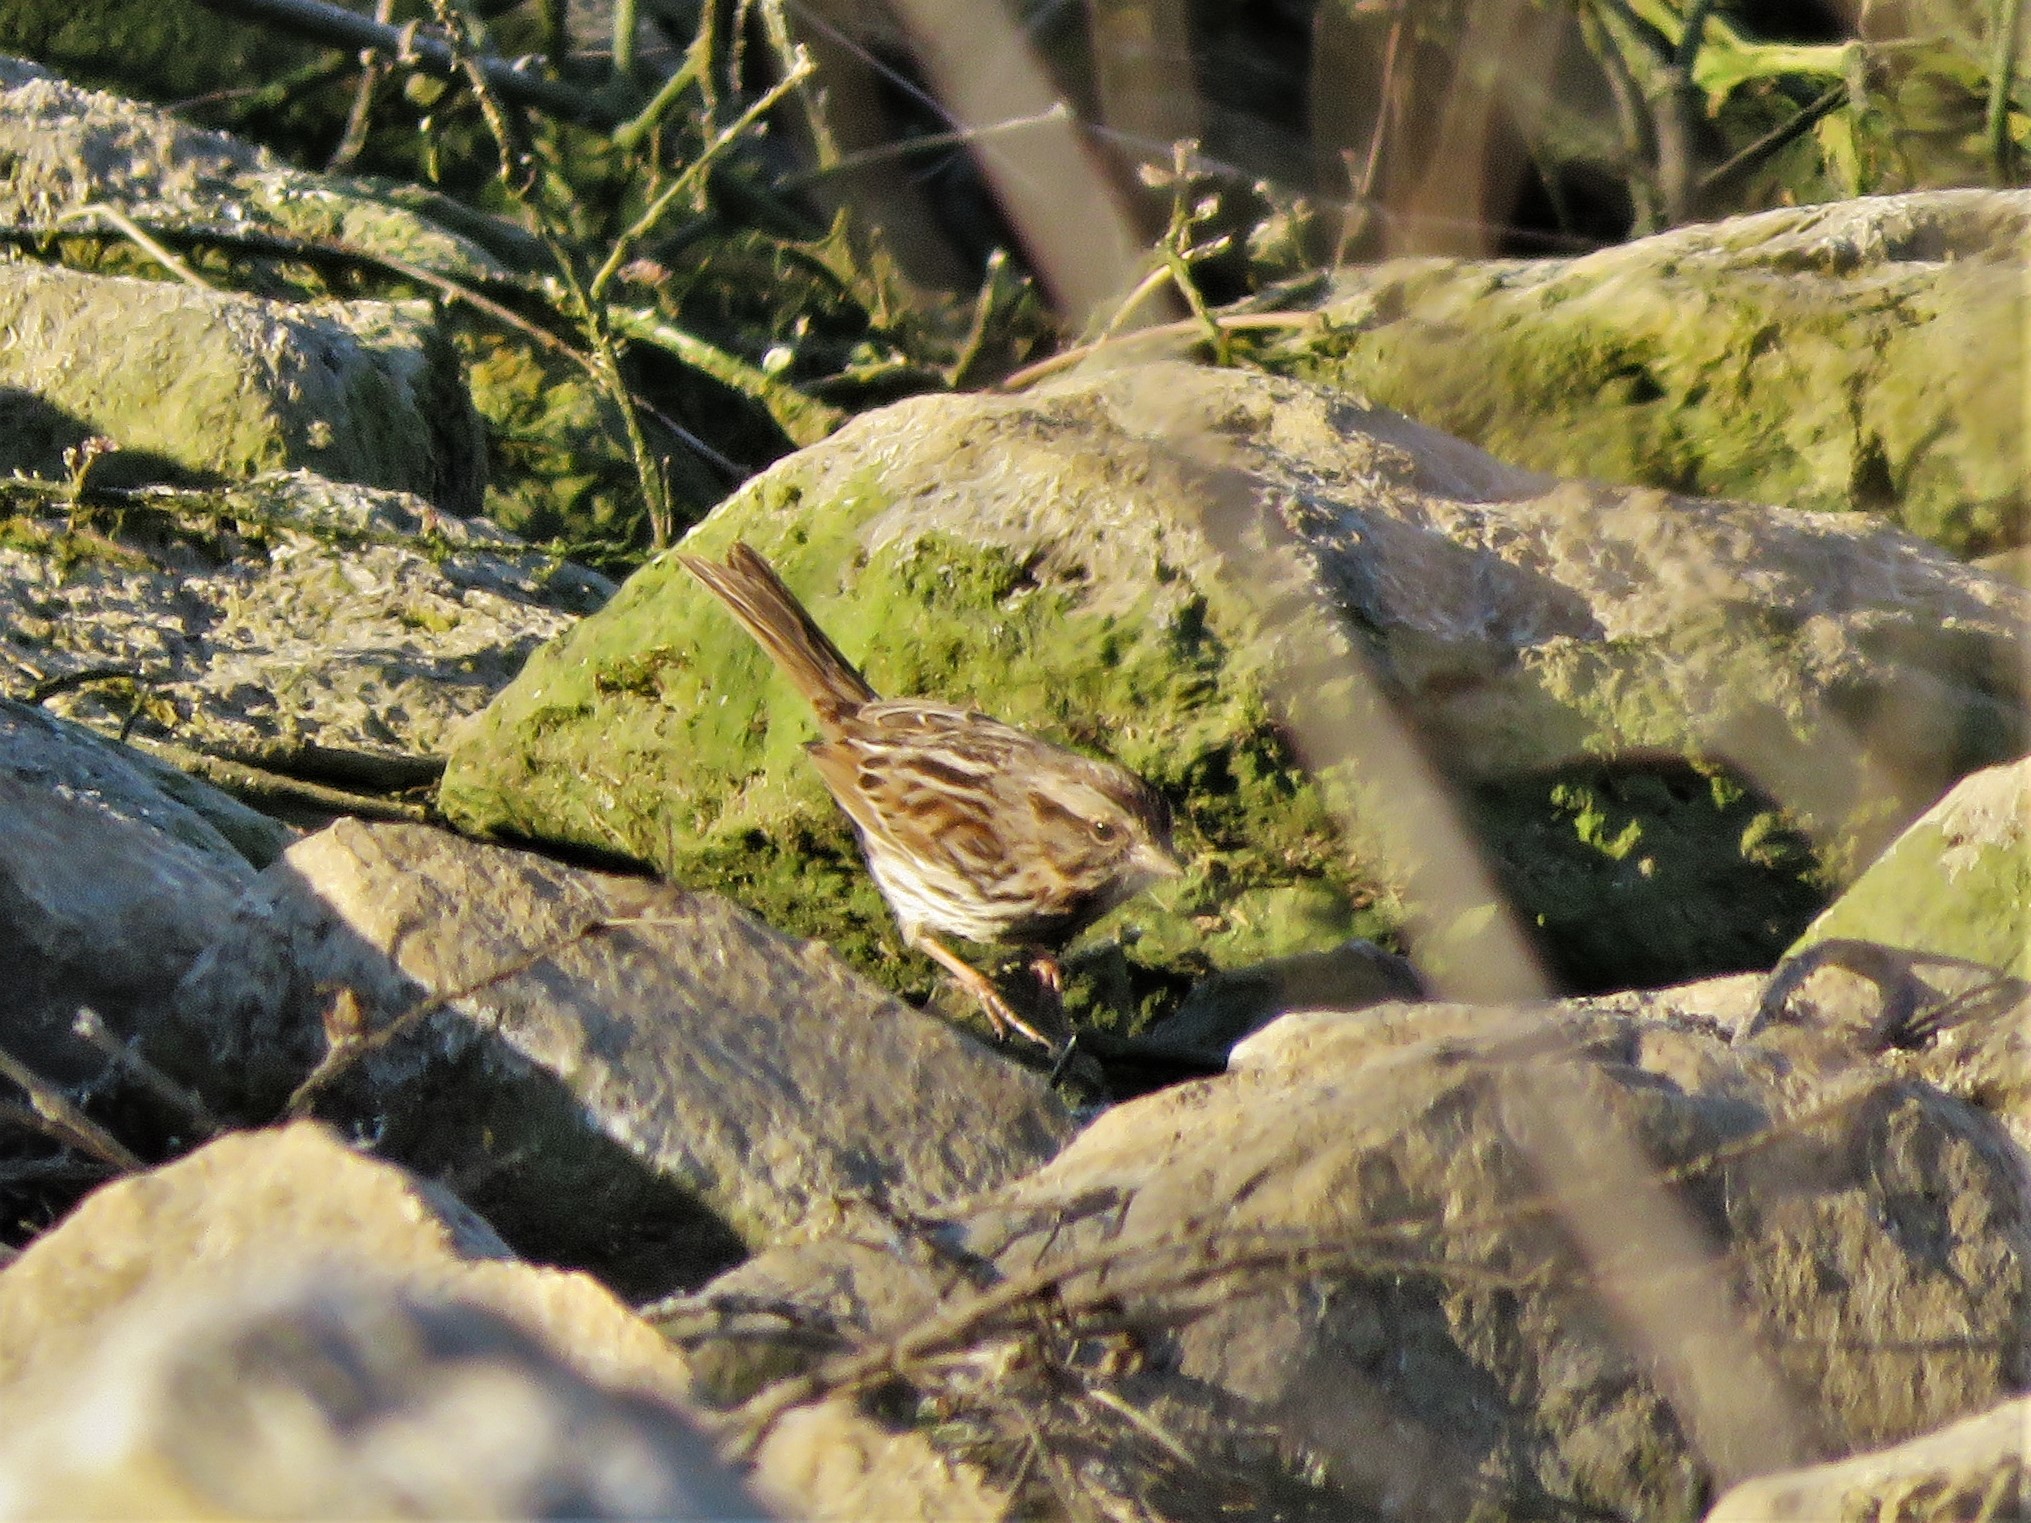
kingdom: Animalia
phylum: Chordata
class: Aves
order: Passeriformes
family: Passerellidae
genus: Melospiza
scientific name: Melospiza melodia
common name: Song sparrow
